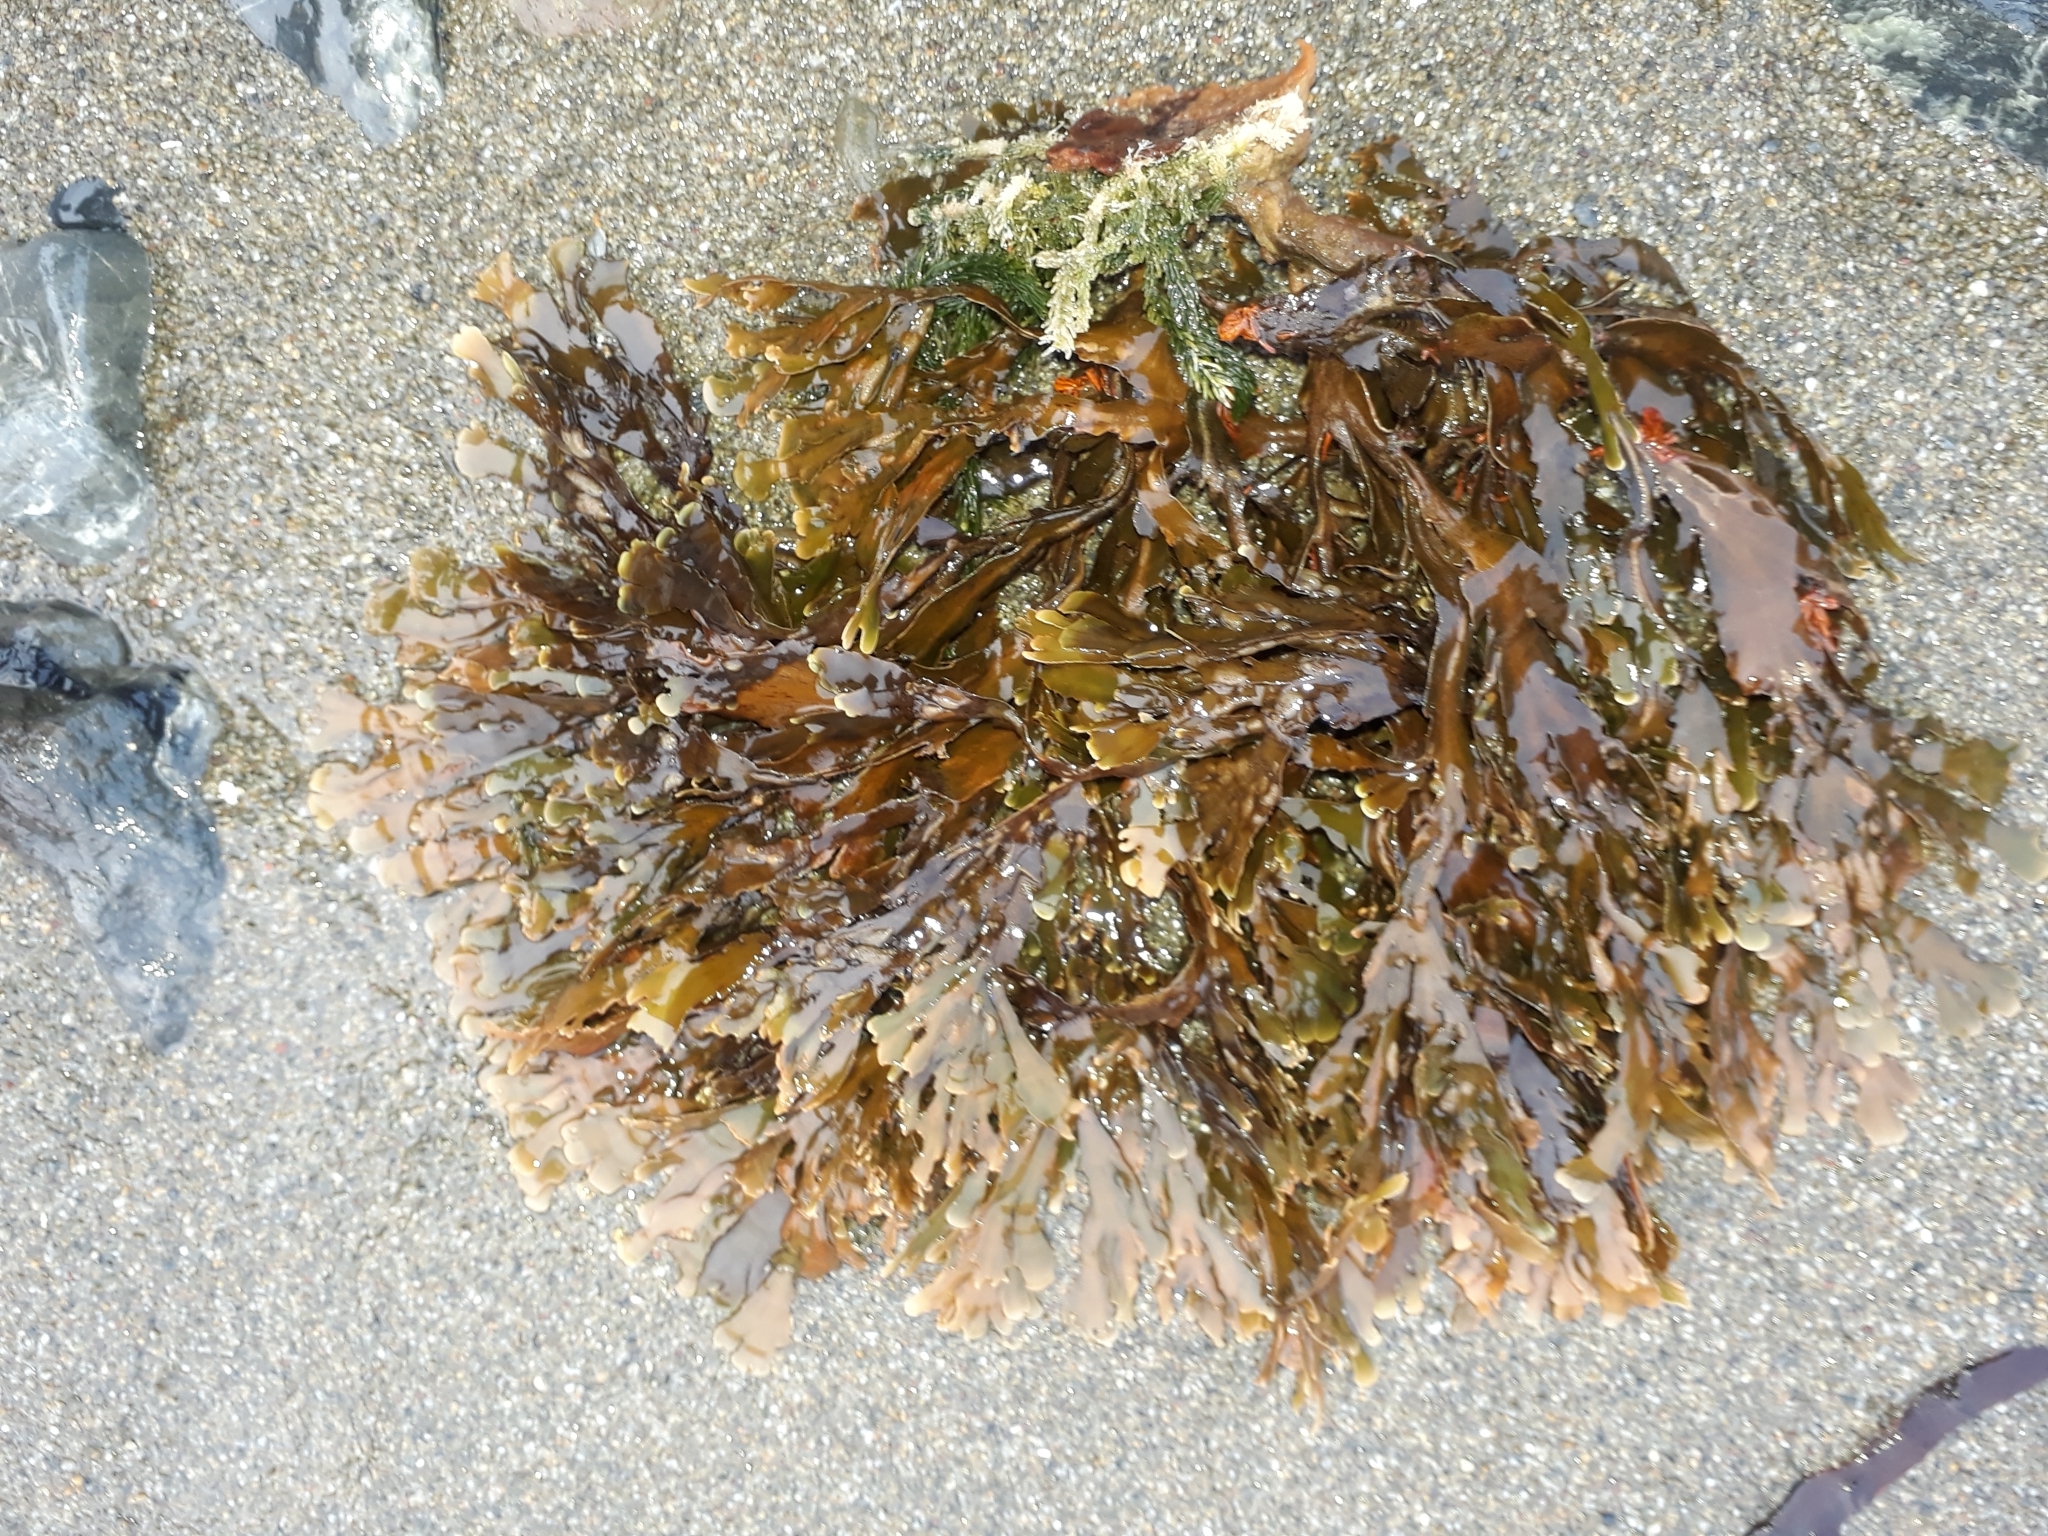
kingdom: Chromista
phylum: Ochrophyta
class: Phaeophyceae
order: Dictyotales
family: Dictyotaceae
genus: Zonaria
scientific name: Zonaria turneriana
